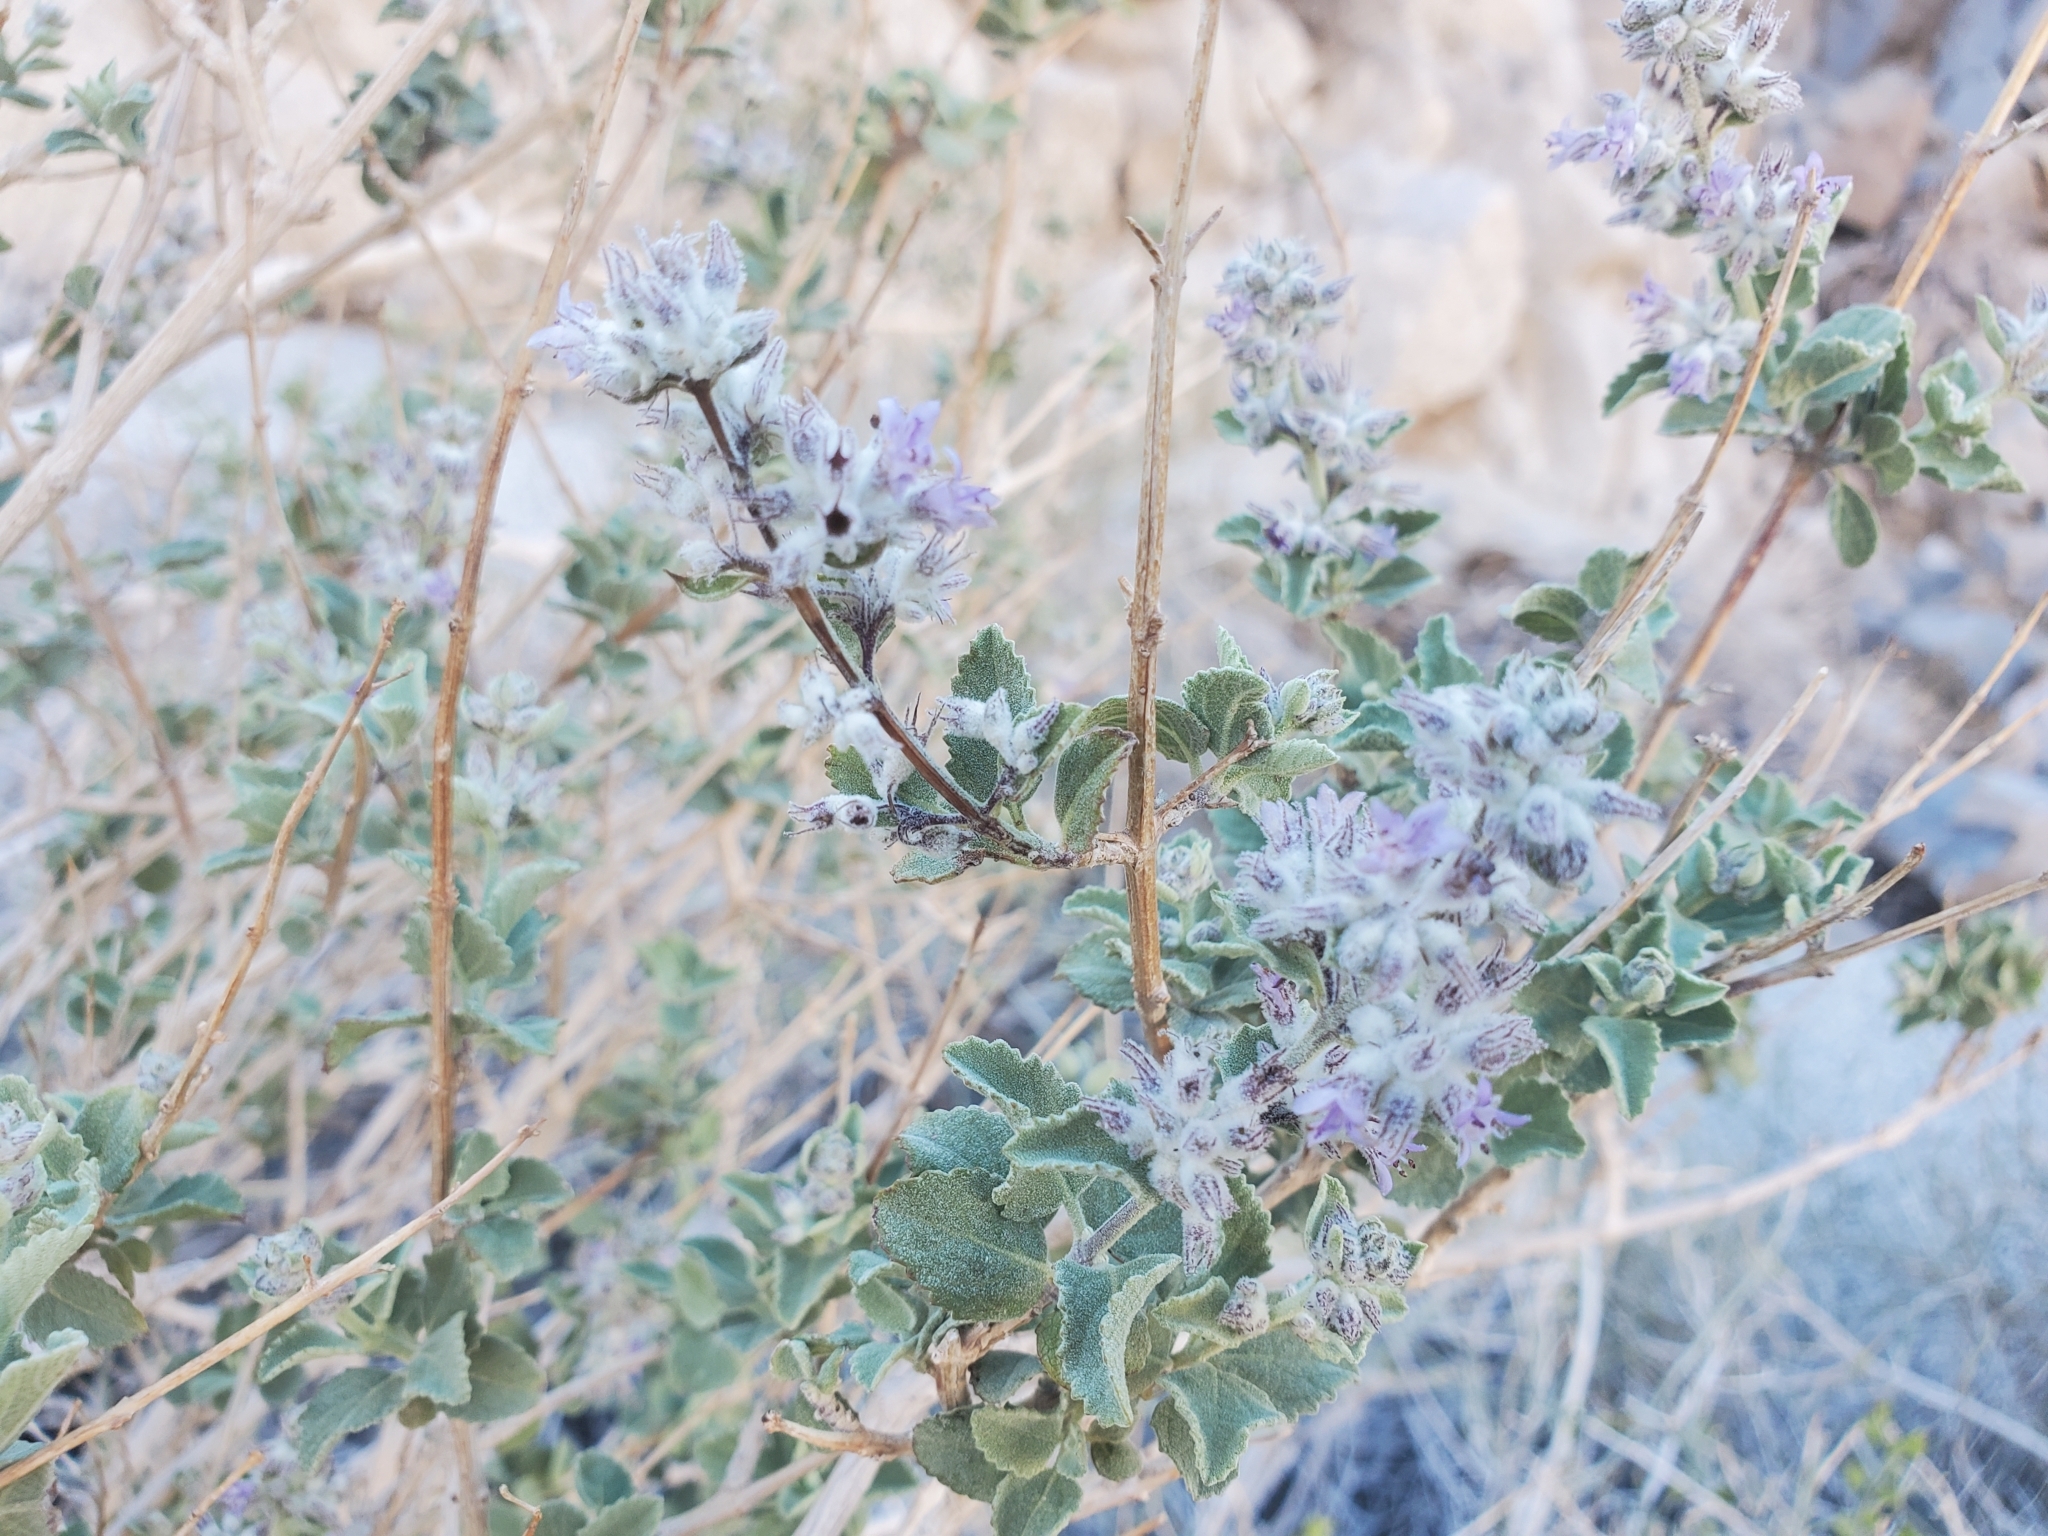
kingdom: Plantae
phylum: Tracheophyta
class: Magnoliopsida
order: Lamiales
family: Lamiaceae
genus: Condea
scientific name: Condea emoryi
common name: Chia
